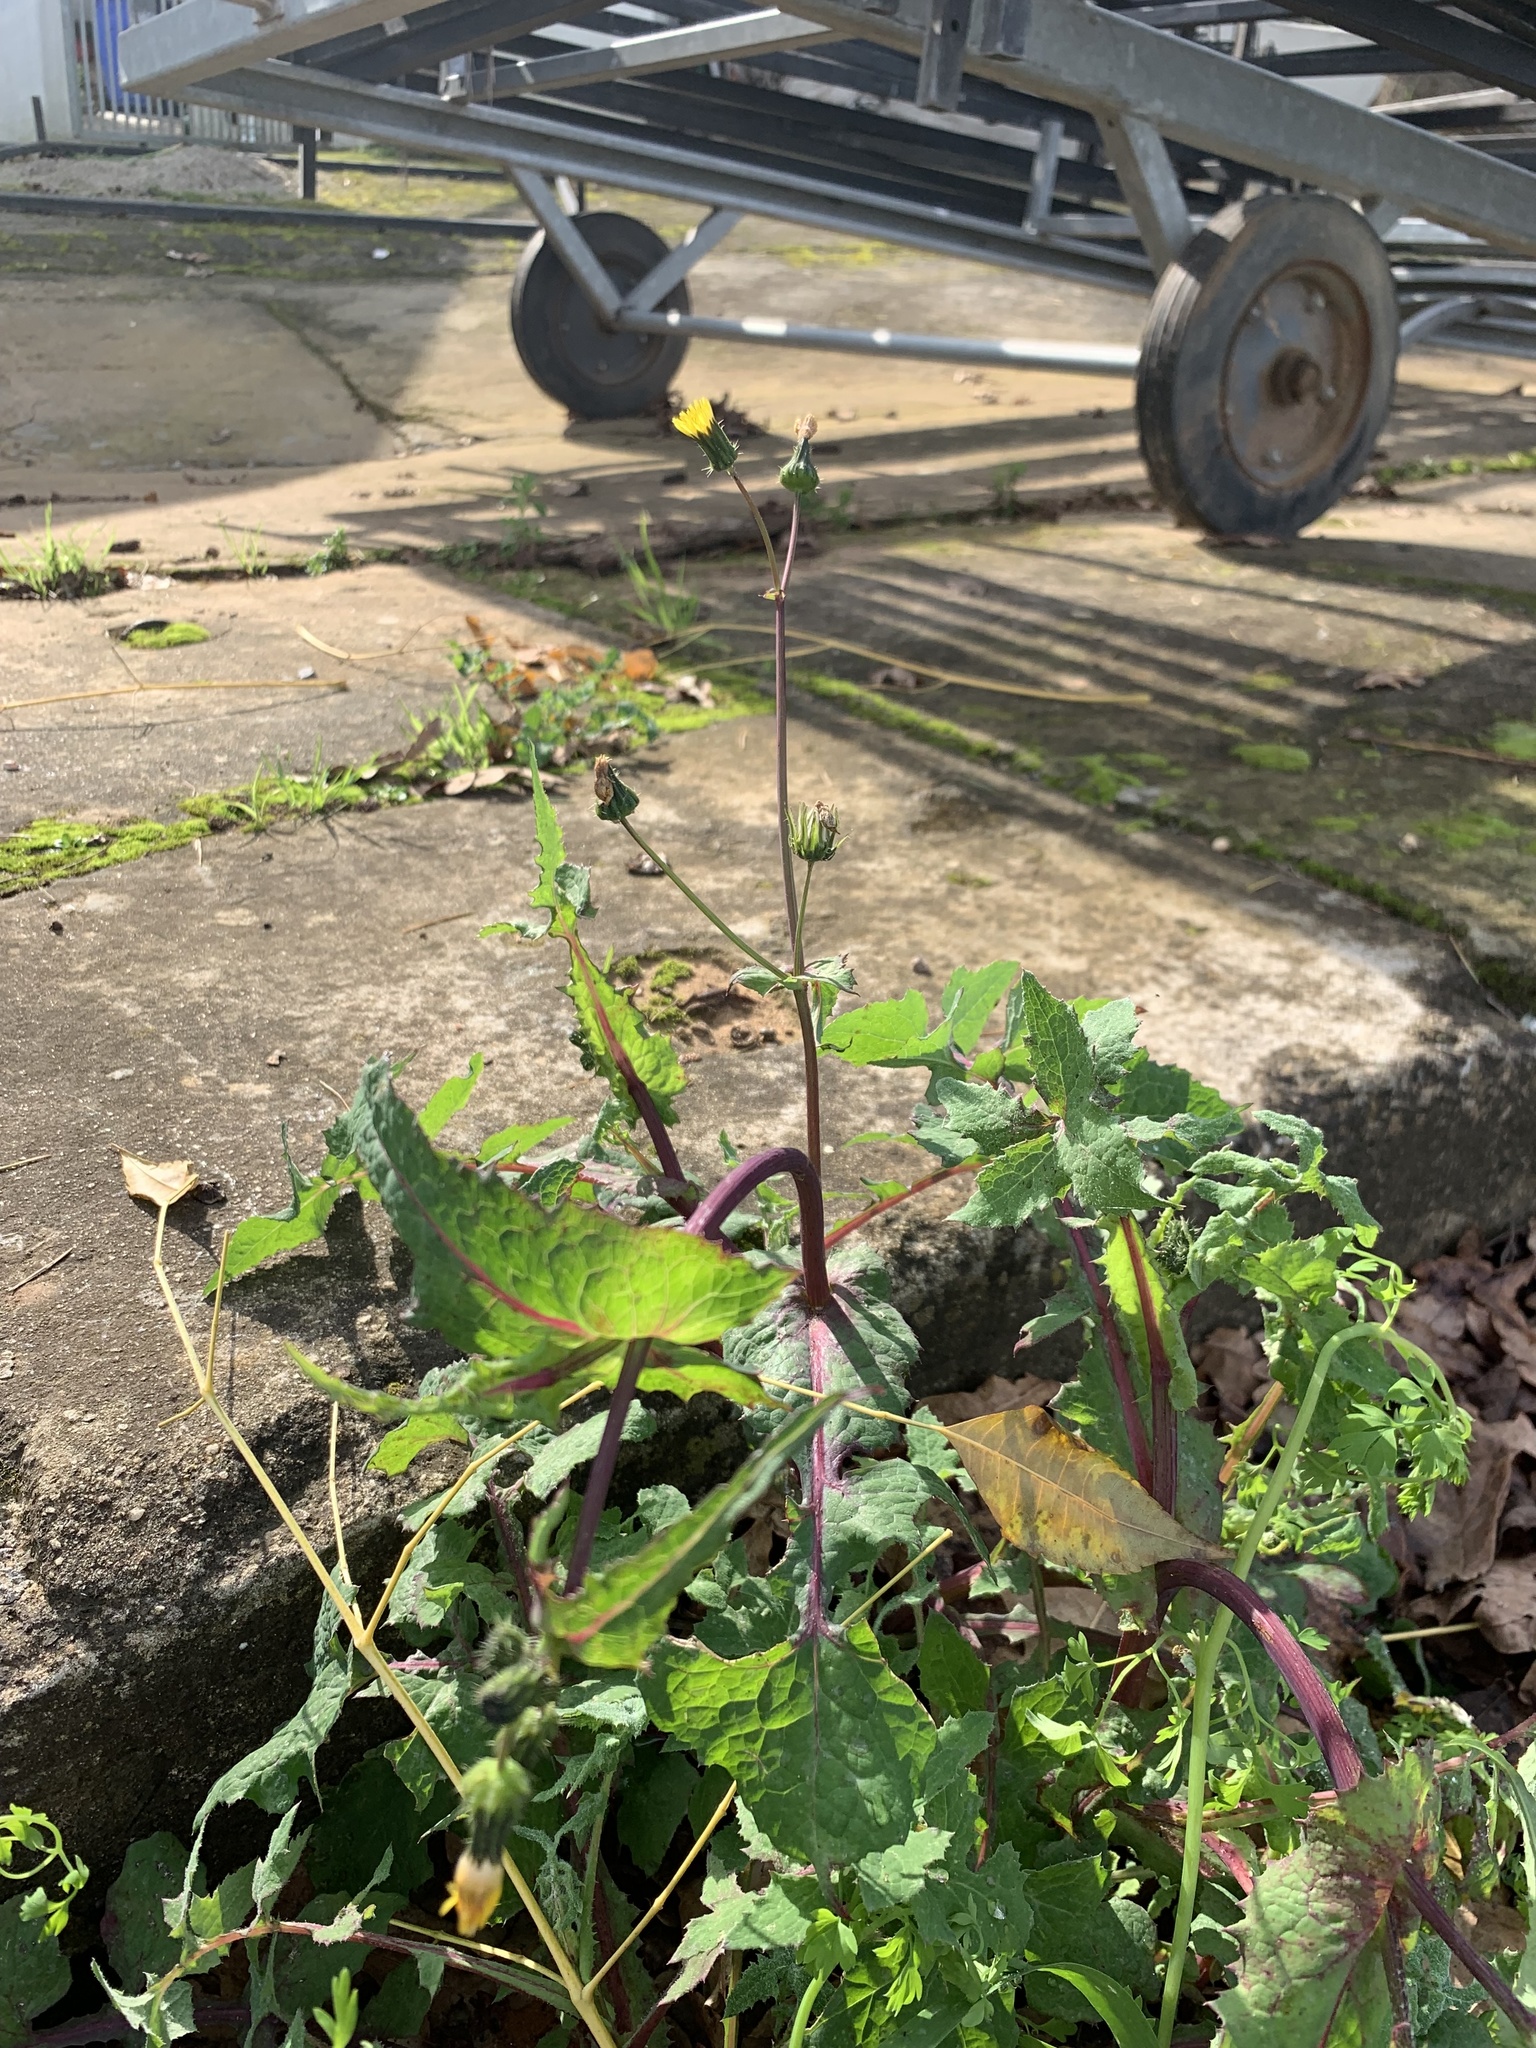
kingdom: Plantae
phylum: Tracheophyta
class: Magnoliopsida
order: Asterales
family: Asteraceae
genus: Sonchus
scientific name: Sonchus oleraceus
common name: Common sowthistle
